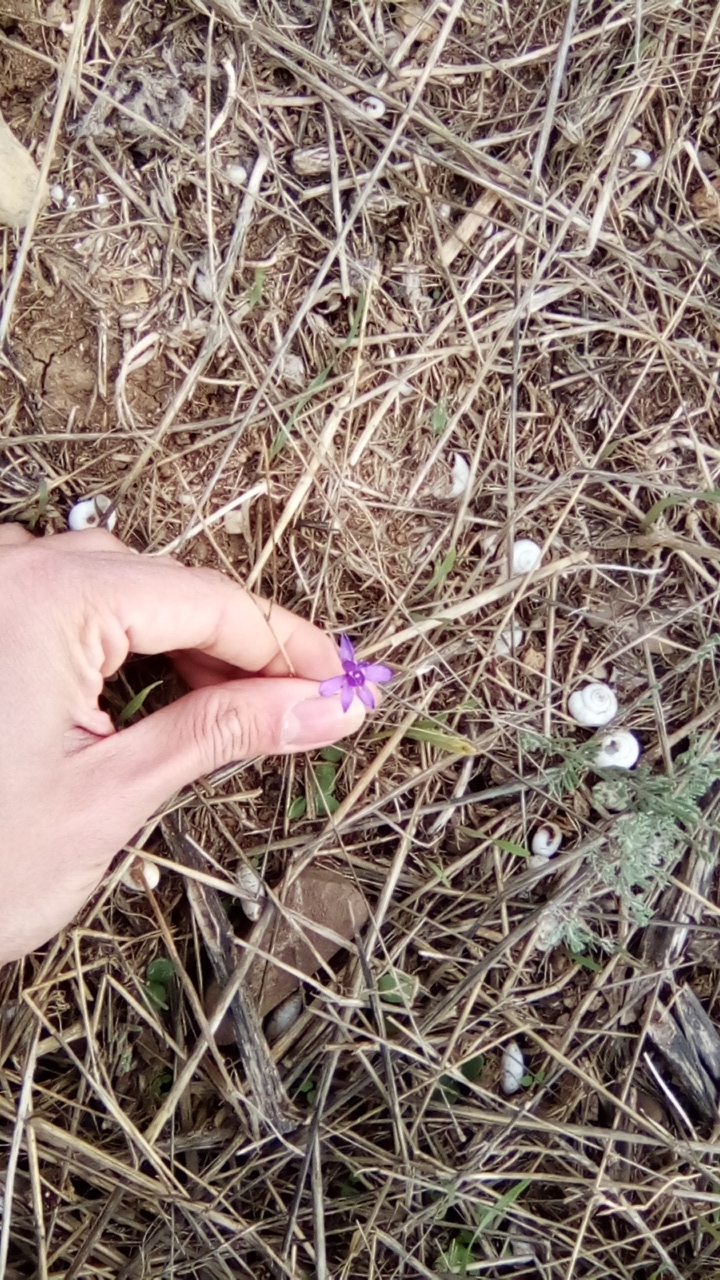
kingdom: Plantae
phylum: Tracheophyta
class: Magnoliopsida
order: Ranunculales
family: Ranunculaceae
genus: Delphinium
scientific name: Delphinium consolida
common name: Branching larkspur
